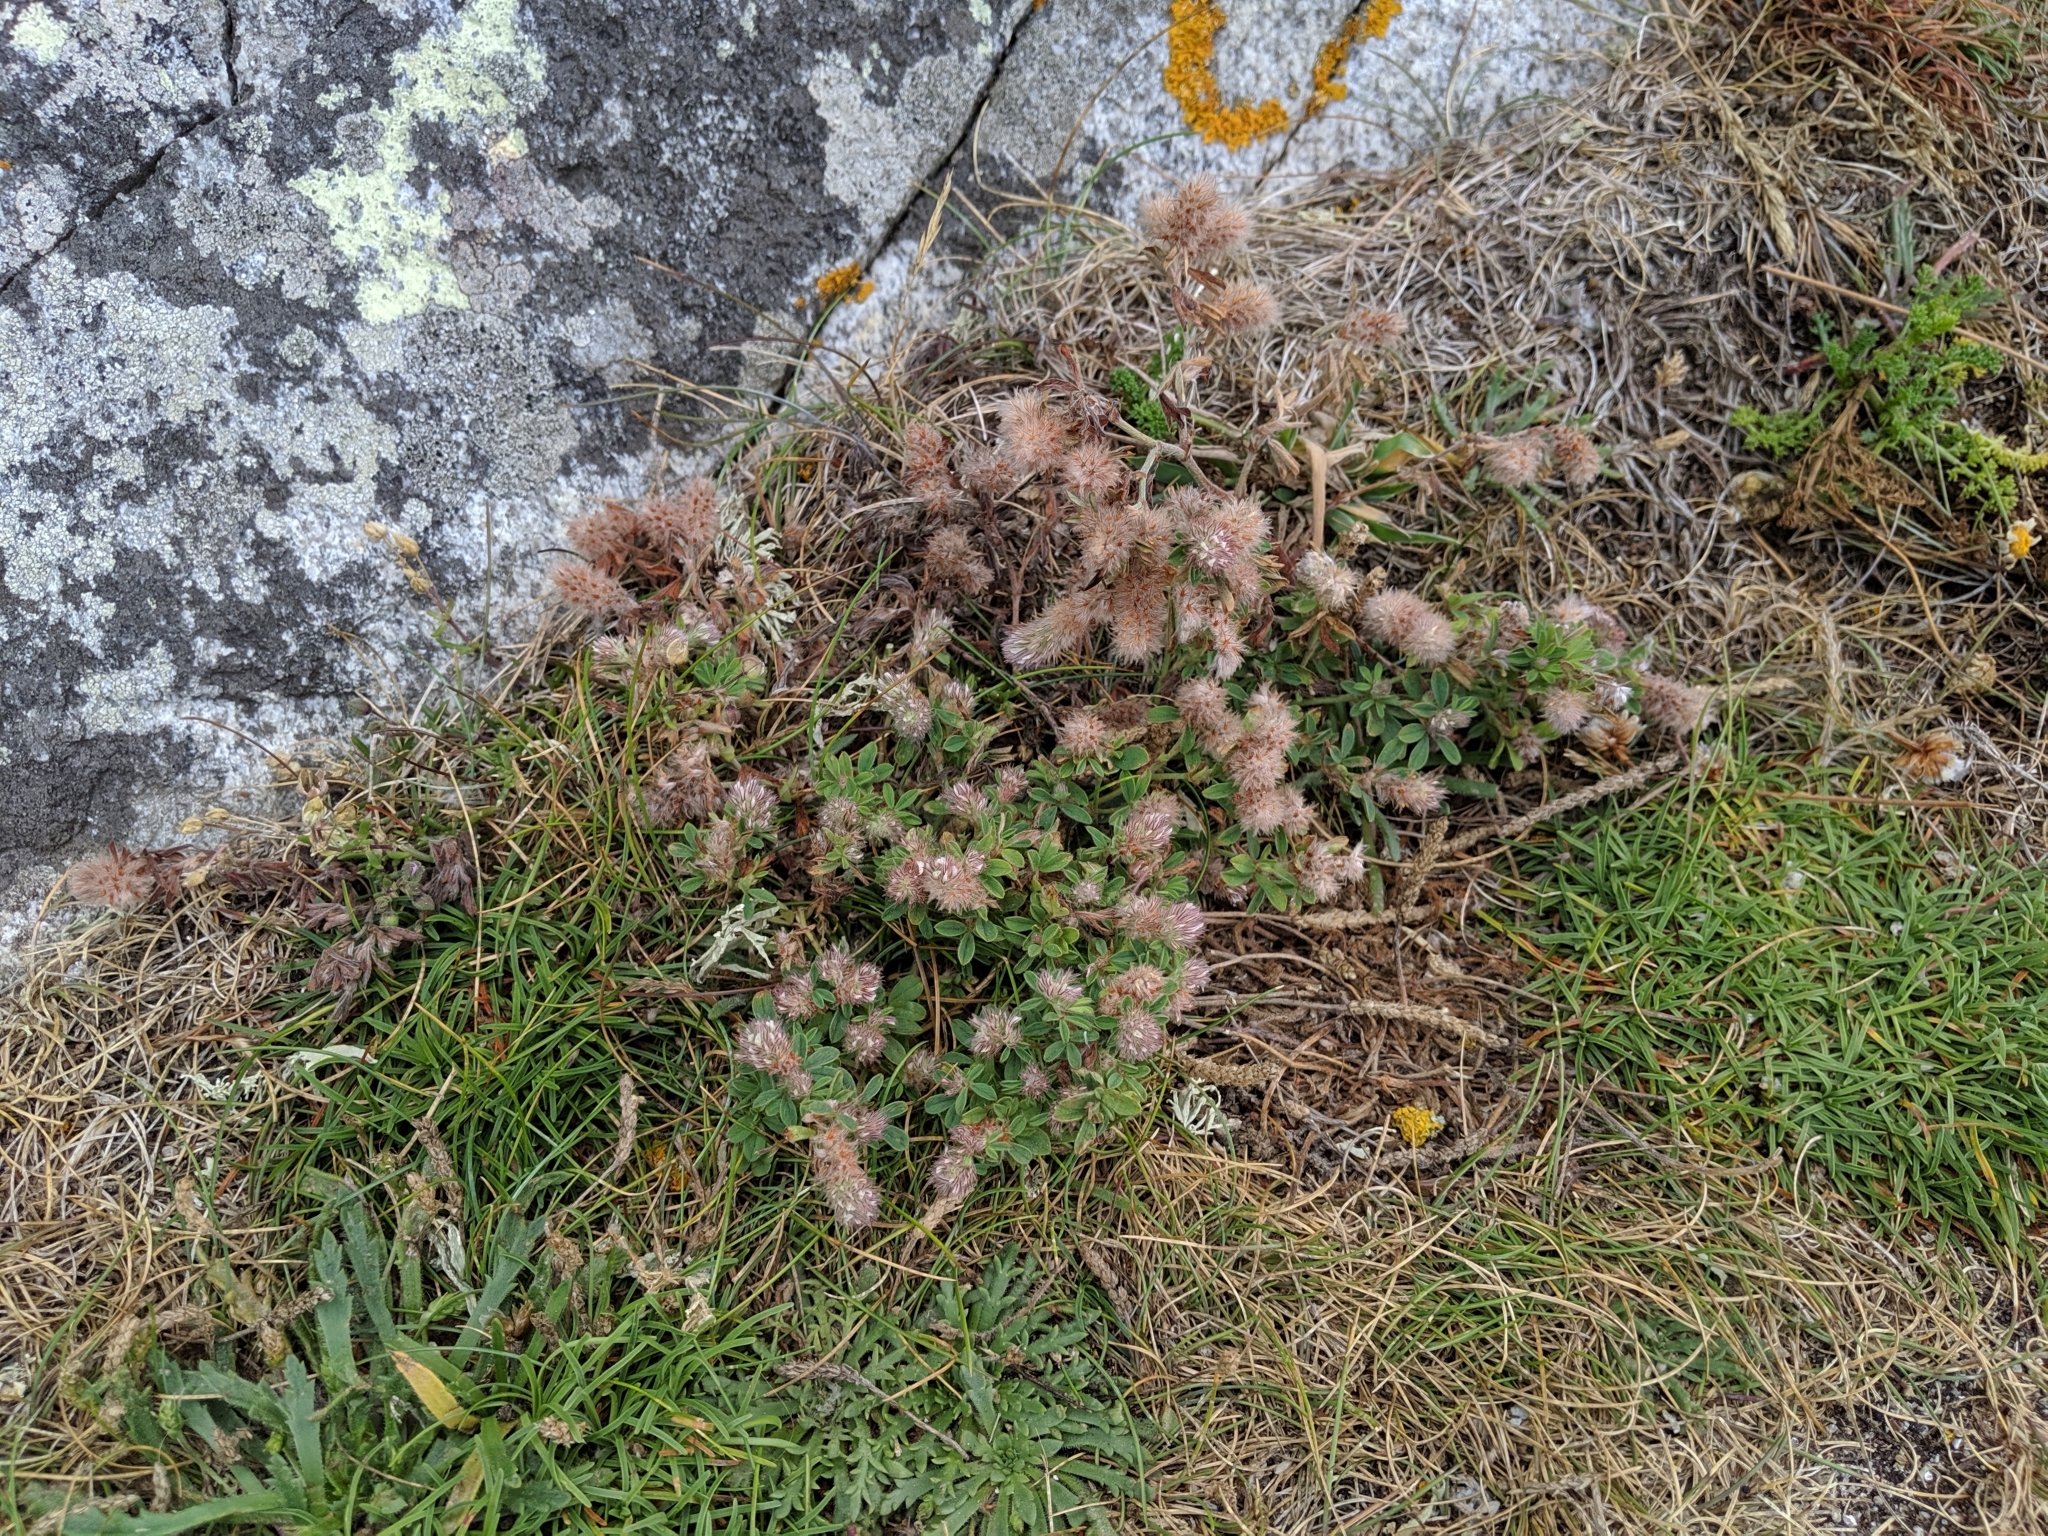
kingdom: Plantae
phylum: Tracheophyta
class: Magnoliopsida
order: Fabales
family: Fabaceae
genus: Trifolium
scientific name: Trifolium arvense
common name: Hare's-foot clover
